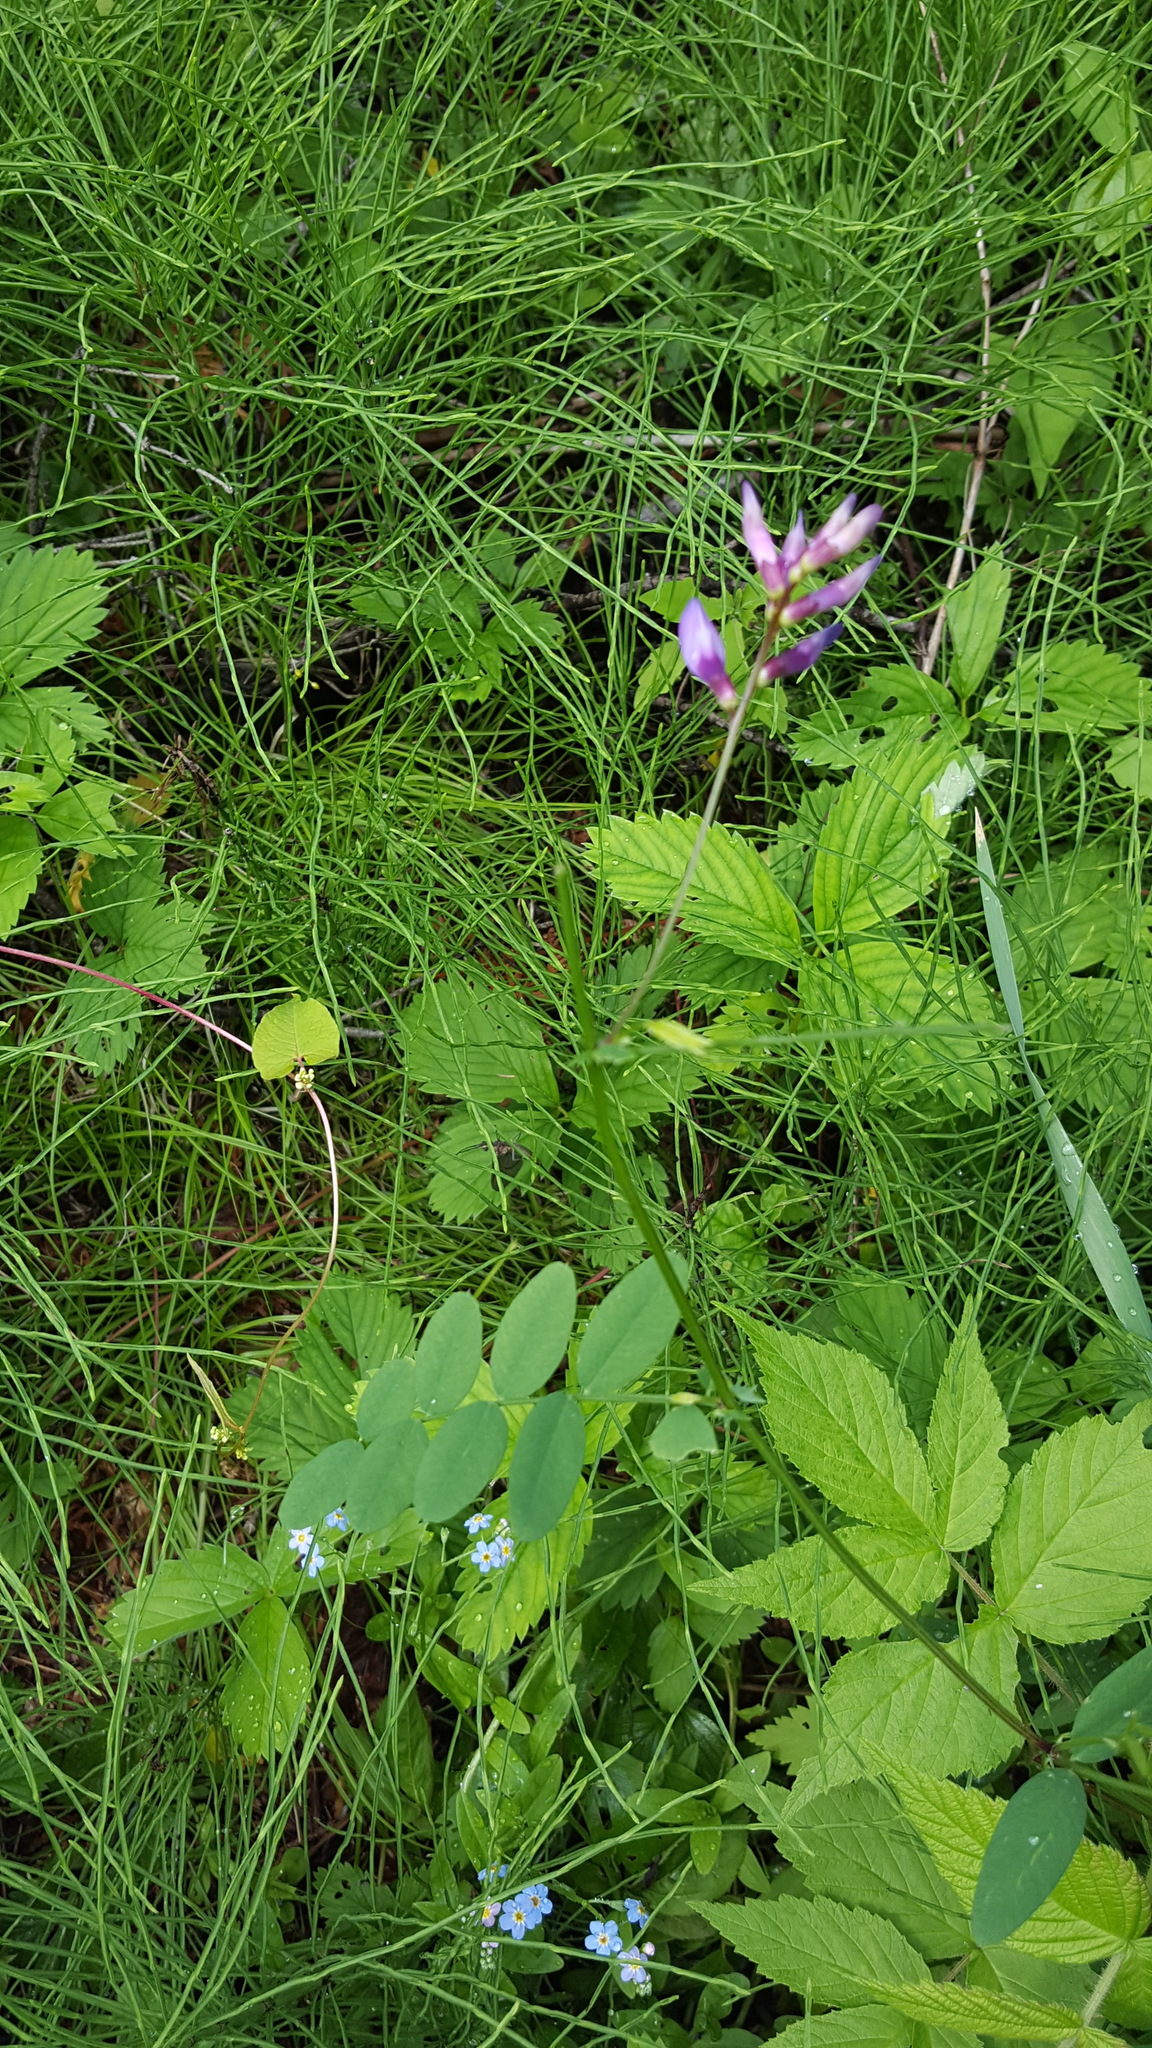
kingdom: Plantae
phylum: Tracheophyta
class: Magnoliopsida
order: Fabales
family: Fabaceae
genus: Vicia
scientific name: Vicia americana
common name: American vetch
